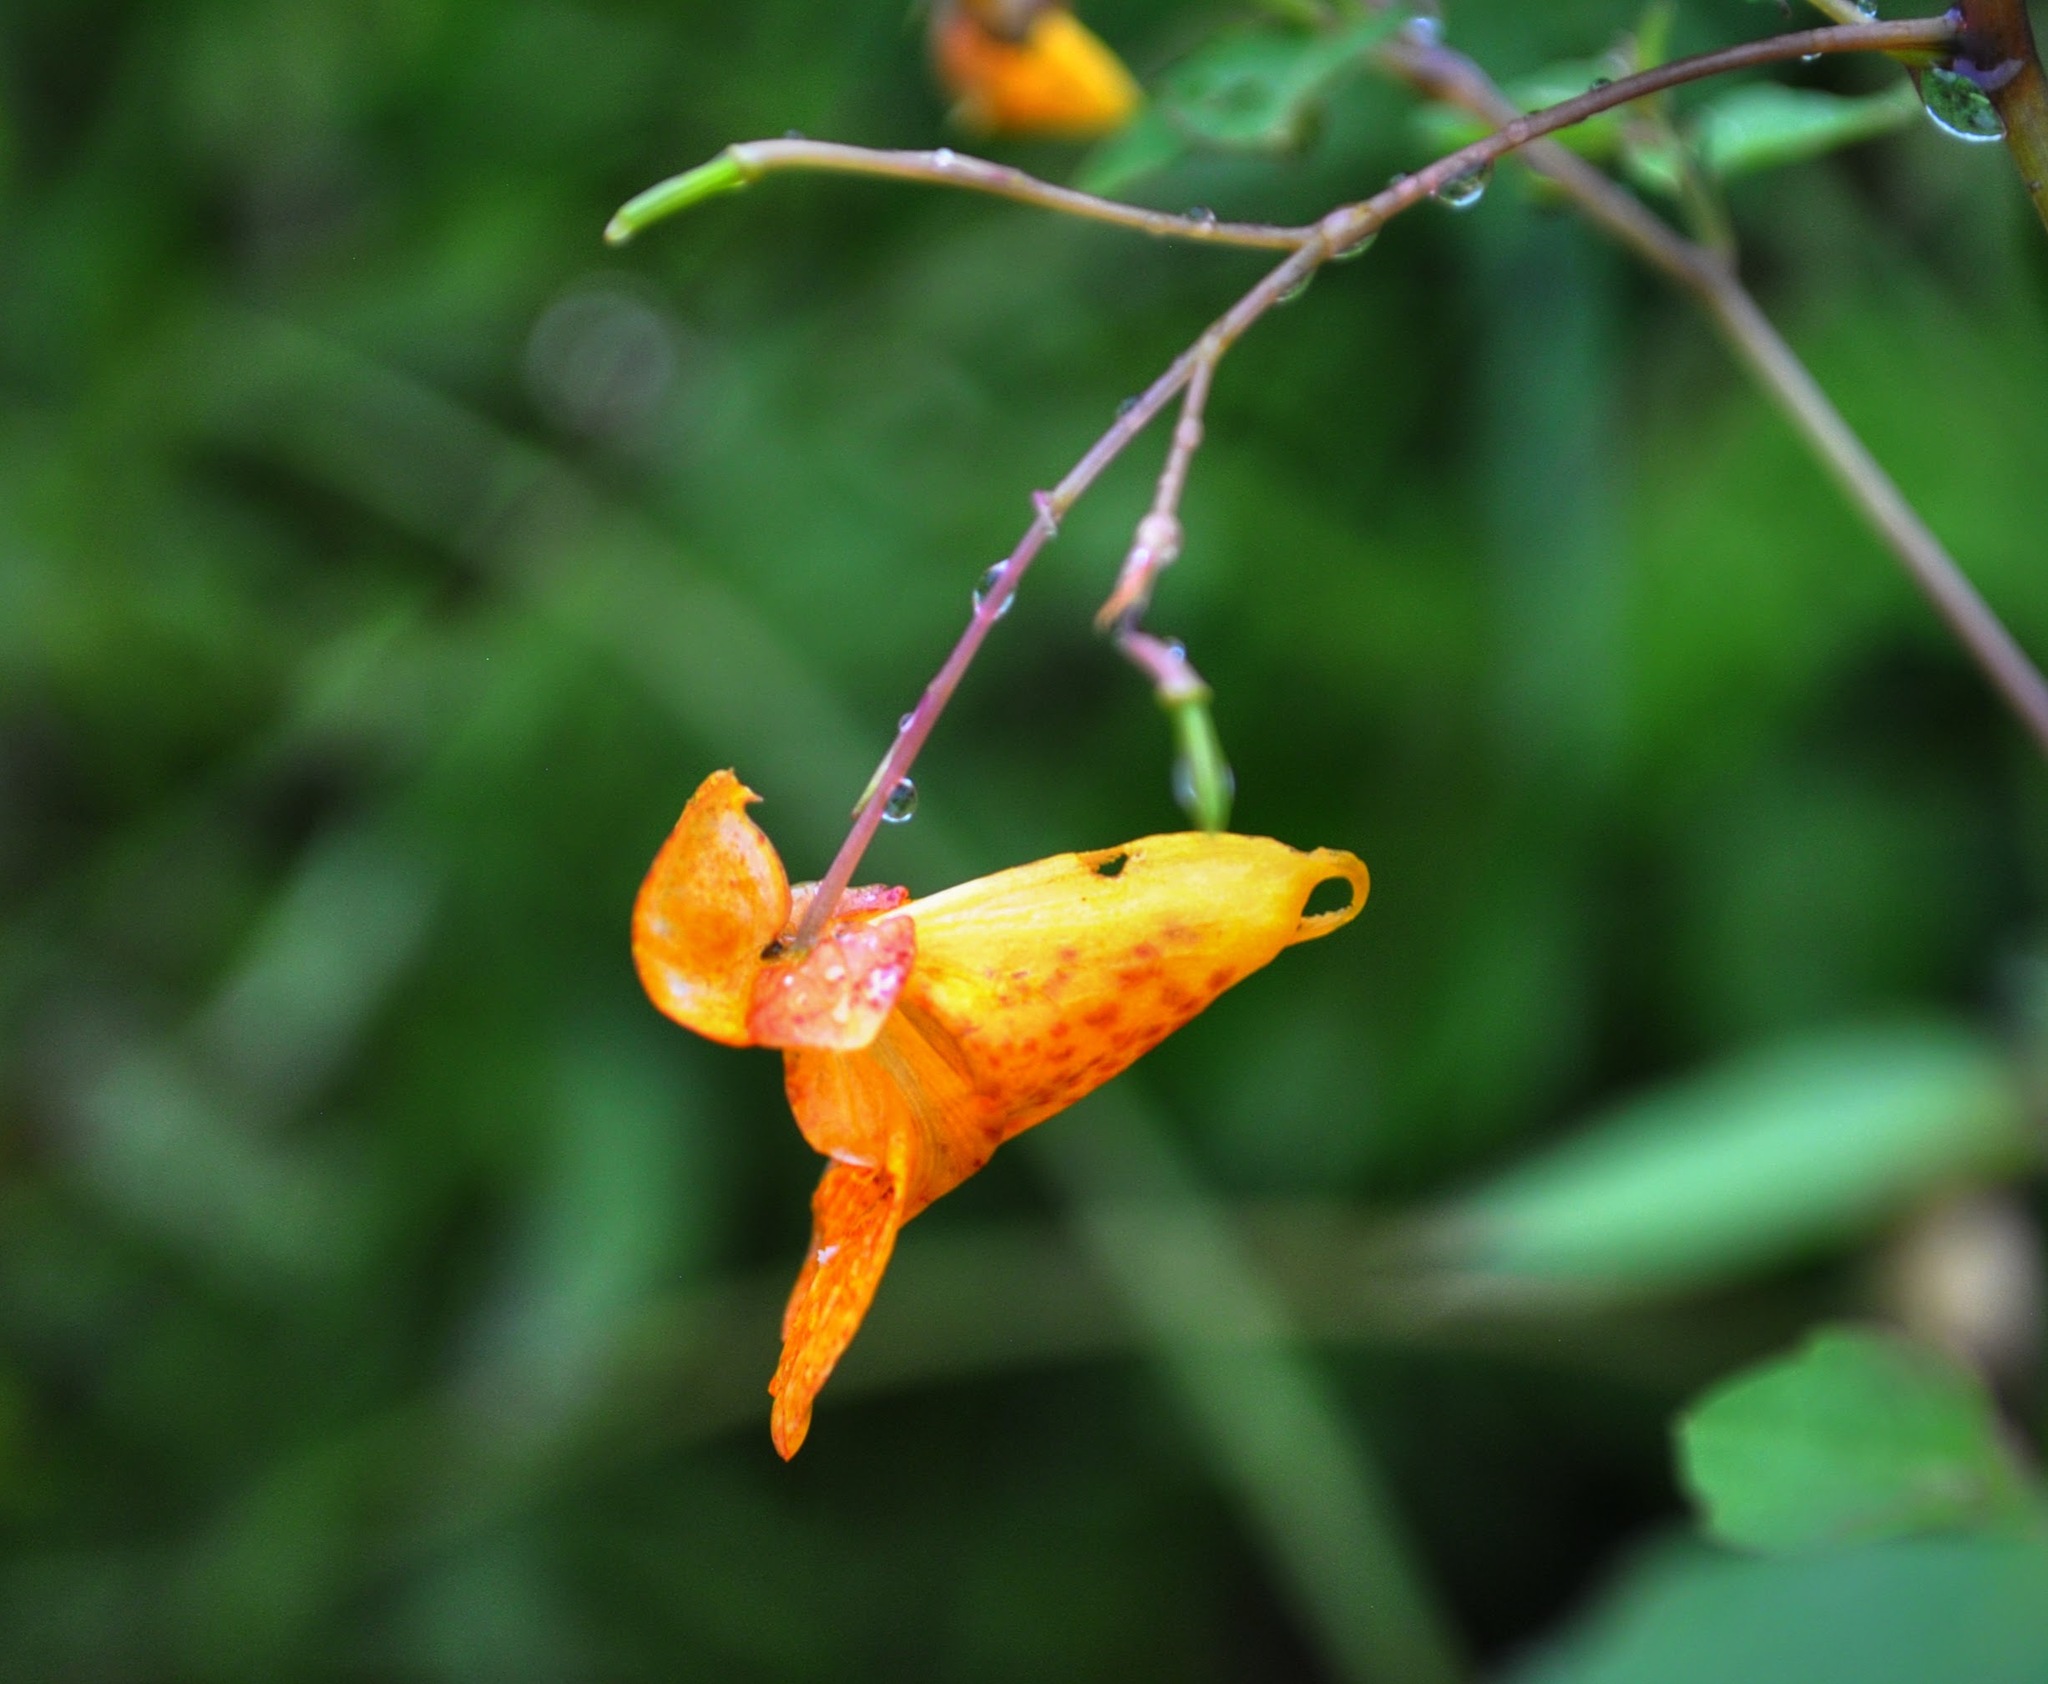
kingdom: Plantae
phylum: Tracheophyta
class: Magnoliopsida
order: Ericales
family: Balsaminaceae
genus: Impatiens
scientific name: Impatiens capensis
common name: Orange balsam
